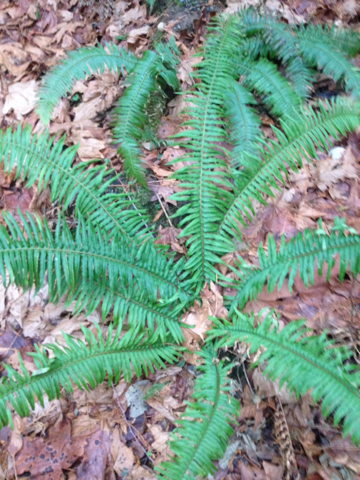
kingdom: Plantae
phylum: Tracheophyta
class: Polypodiopsida
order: Polypodiales
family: Dryopteridaceae
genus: Polystichum
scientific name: Polystichum munitum
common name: Western sword-fern
